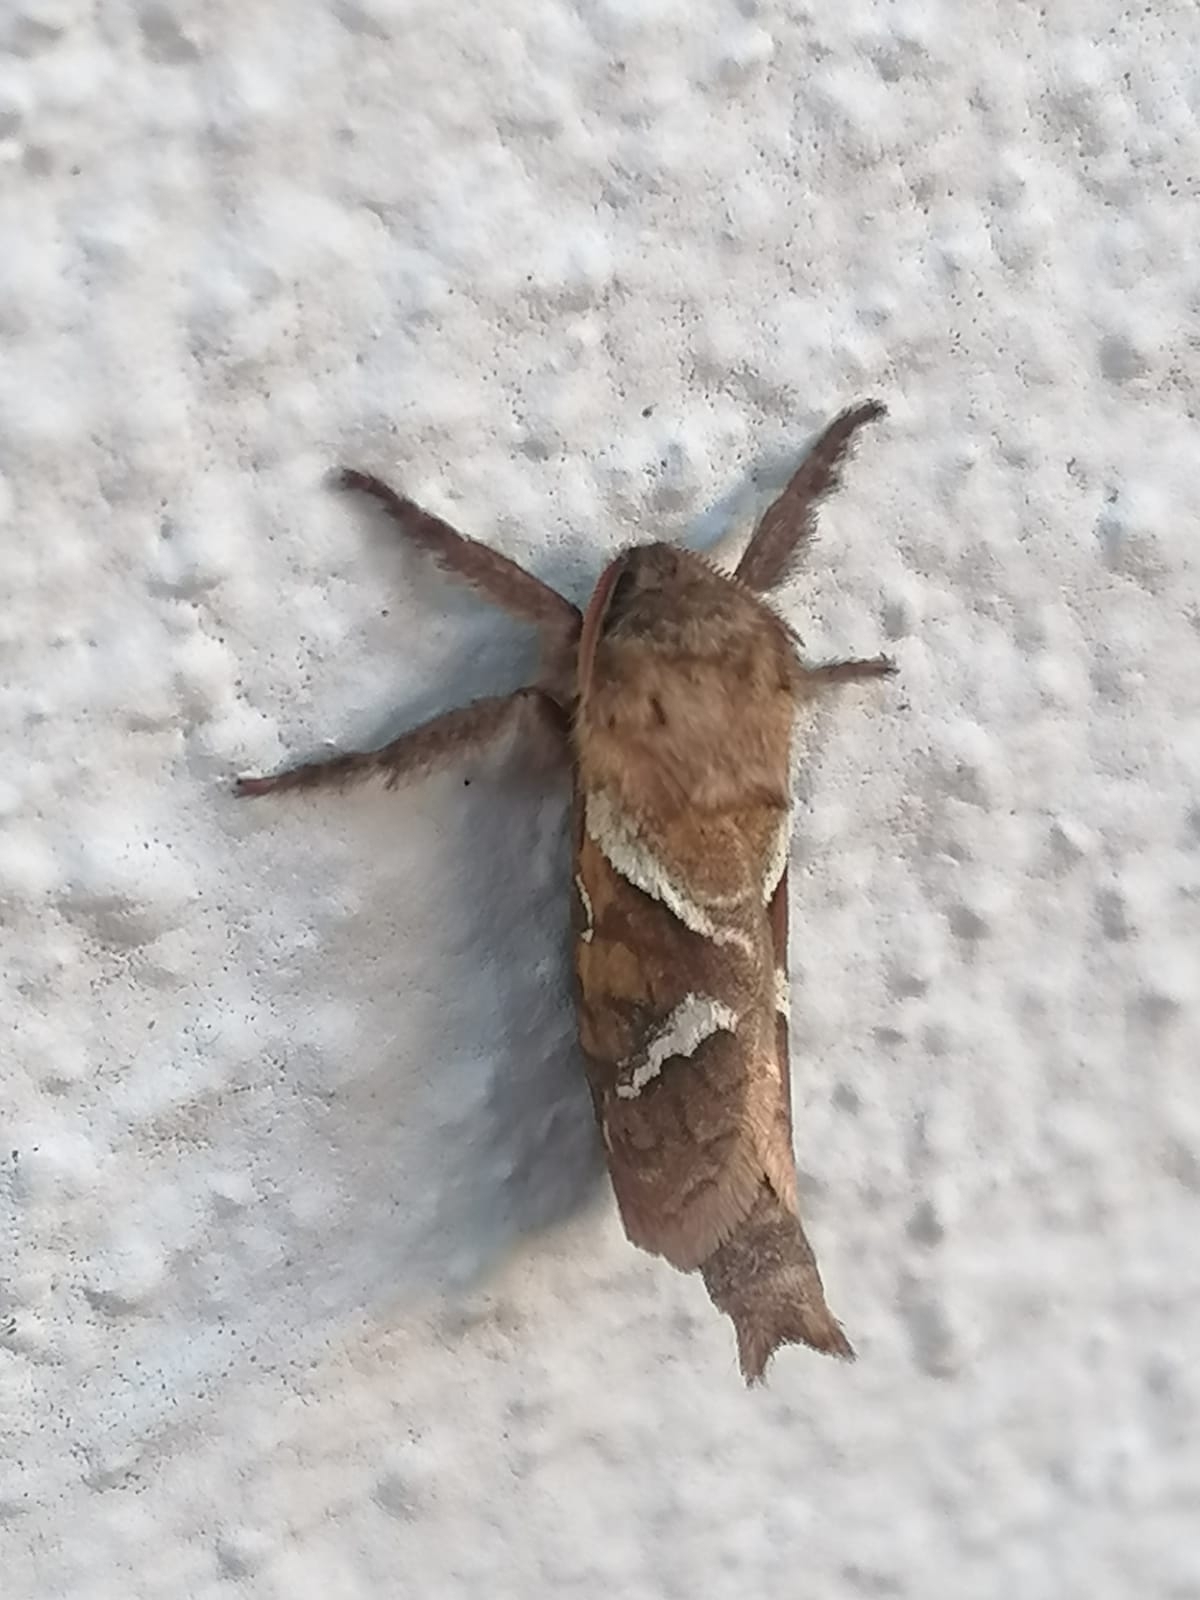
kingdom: Animalia
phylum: Arthropoda
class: Insecta
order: Lepidoptera
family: Hepialidae
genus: Triodia
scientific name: Triodia sylvina
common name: Orange swift
